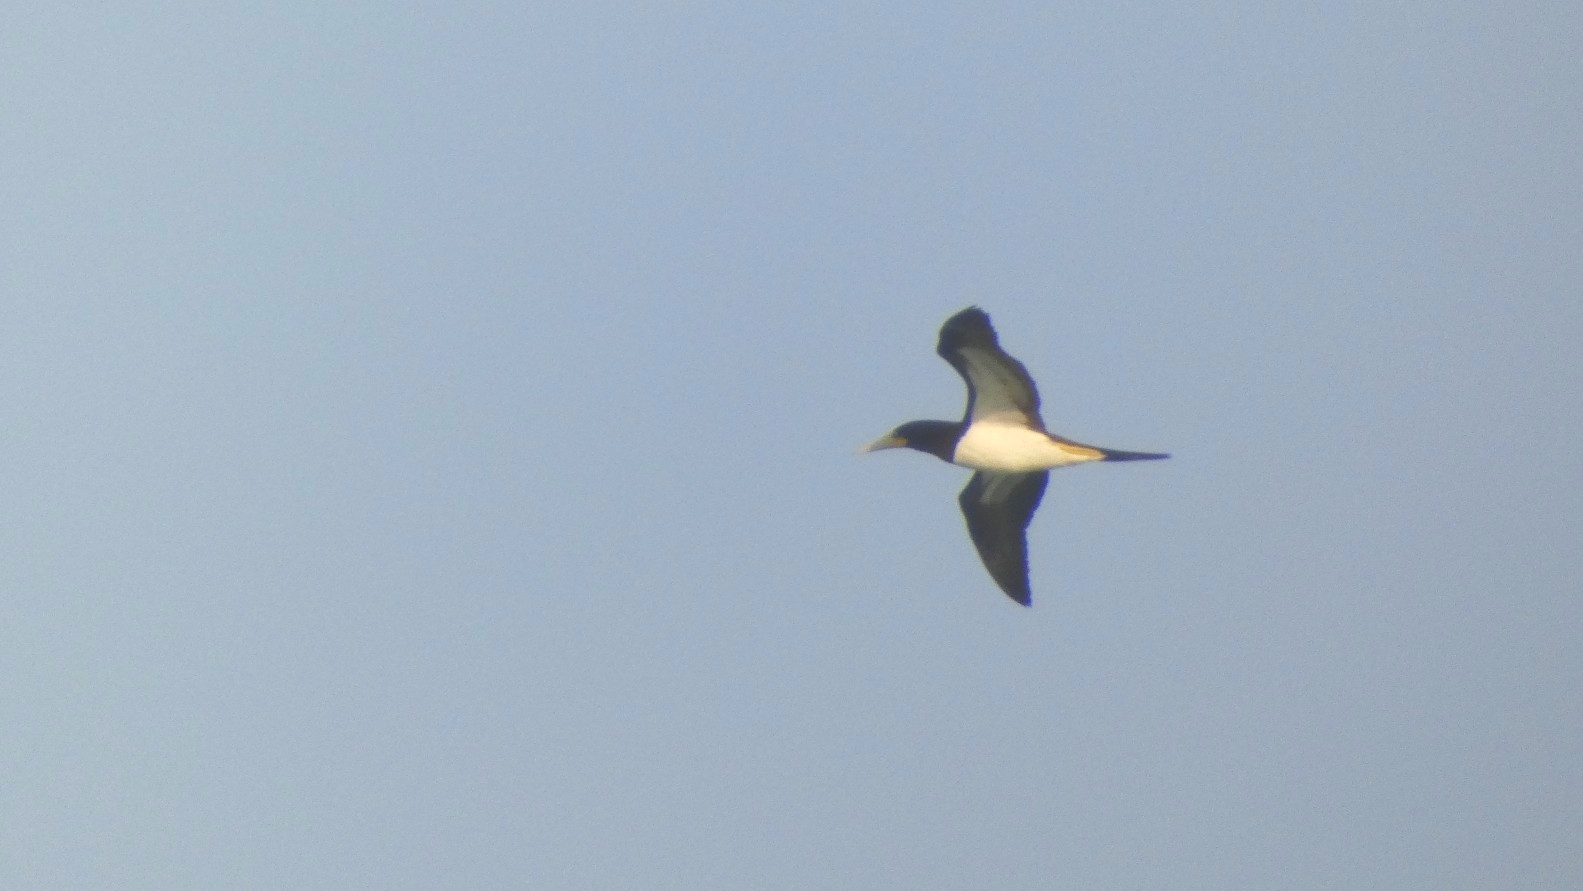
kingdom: Animalia
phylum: Chordata
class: Aves
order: Suliformes
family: Sulidae
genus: Sula
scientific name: Sula leucogaster
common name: Brown booby
